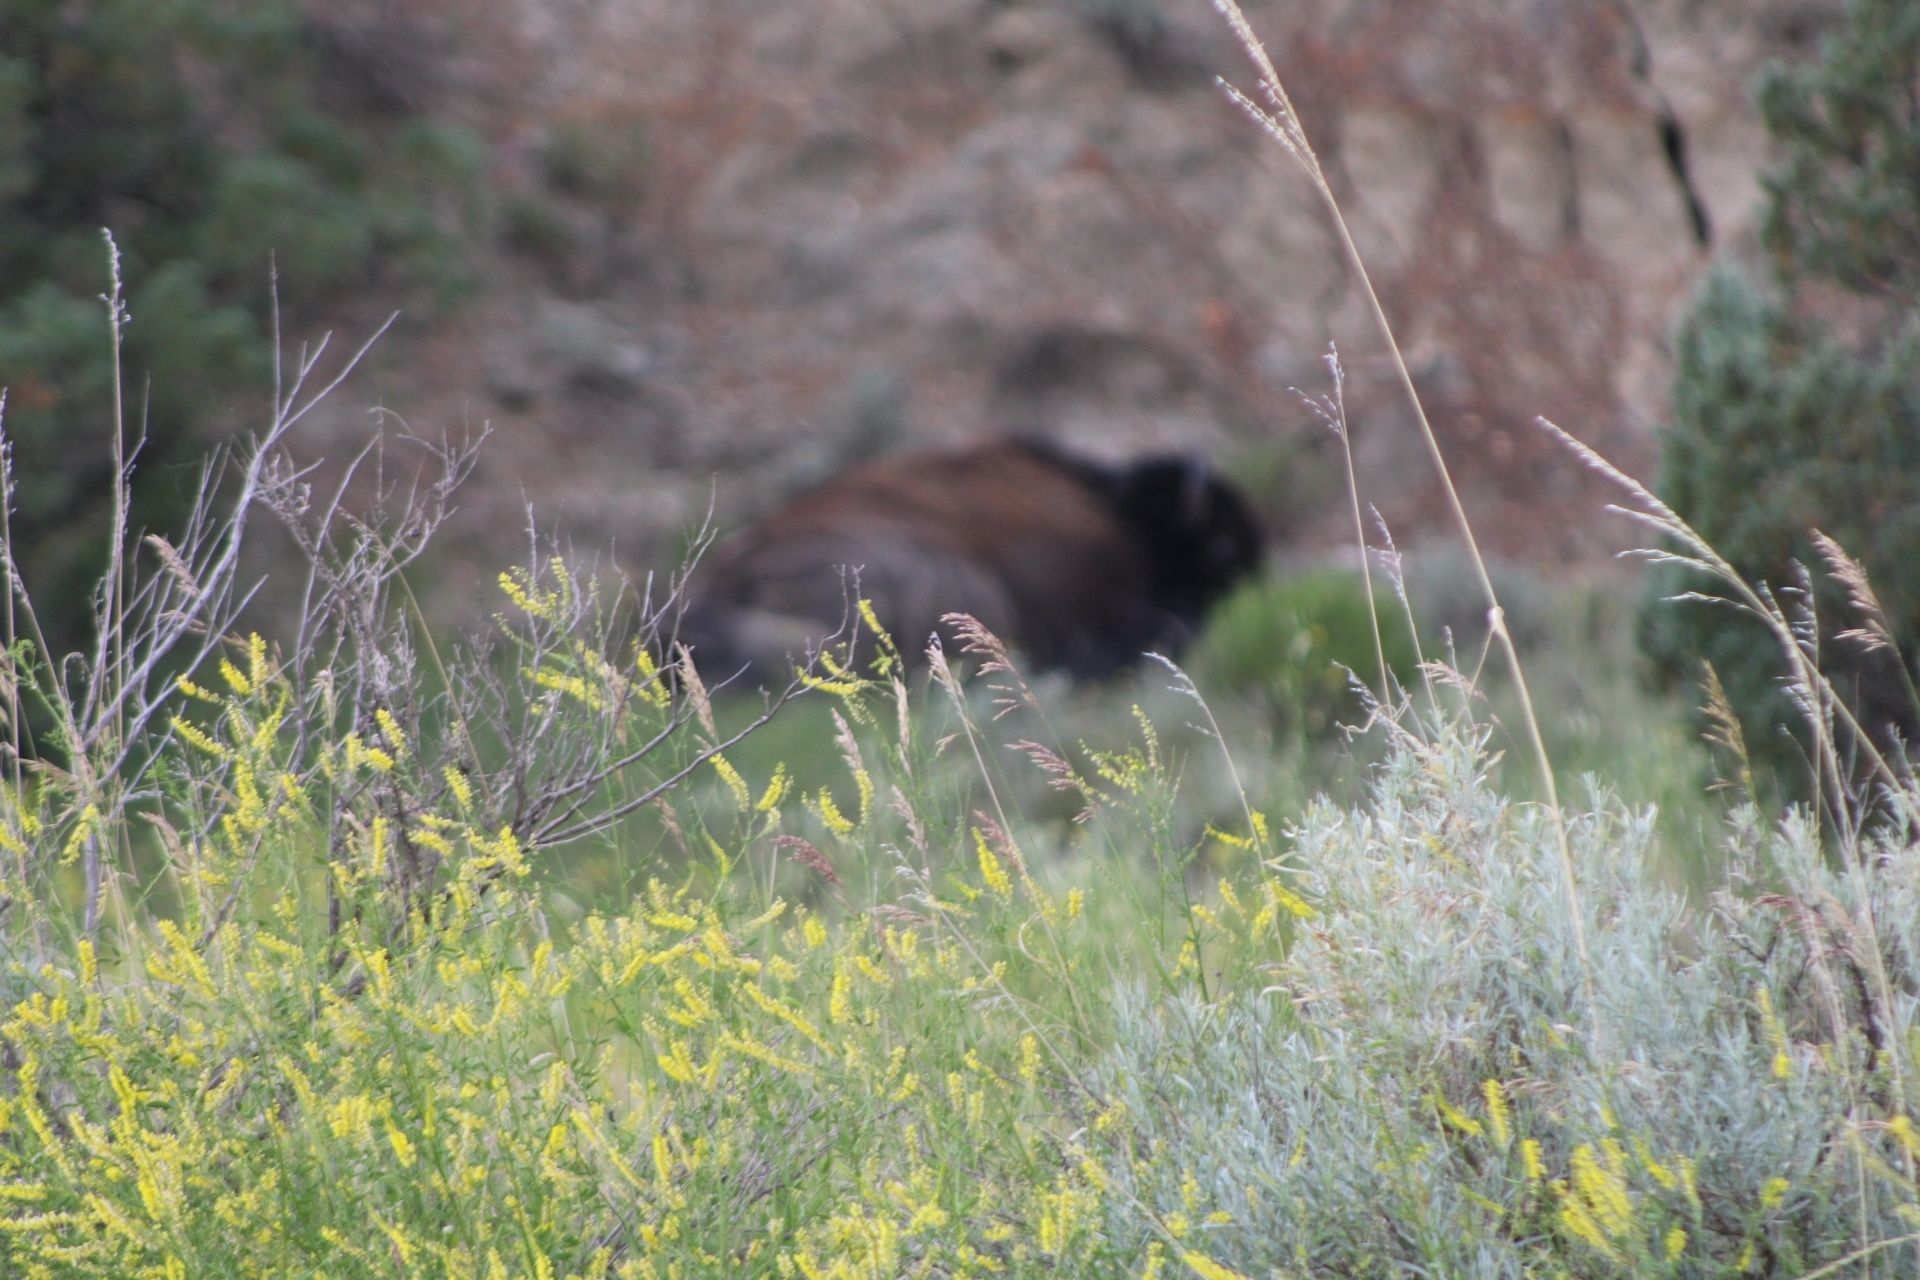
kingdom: Animalia
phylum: Chordata
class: Mammalia
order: Artiodactyla
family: Bovidae
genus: Bison
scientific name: Bison bison
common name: American bison
